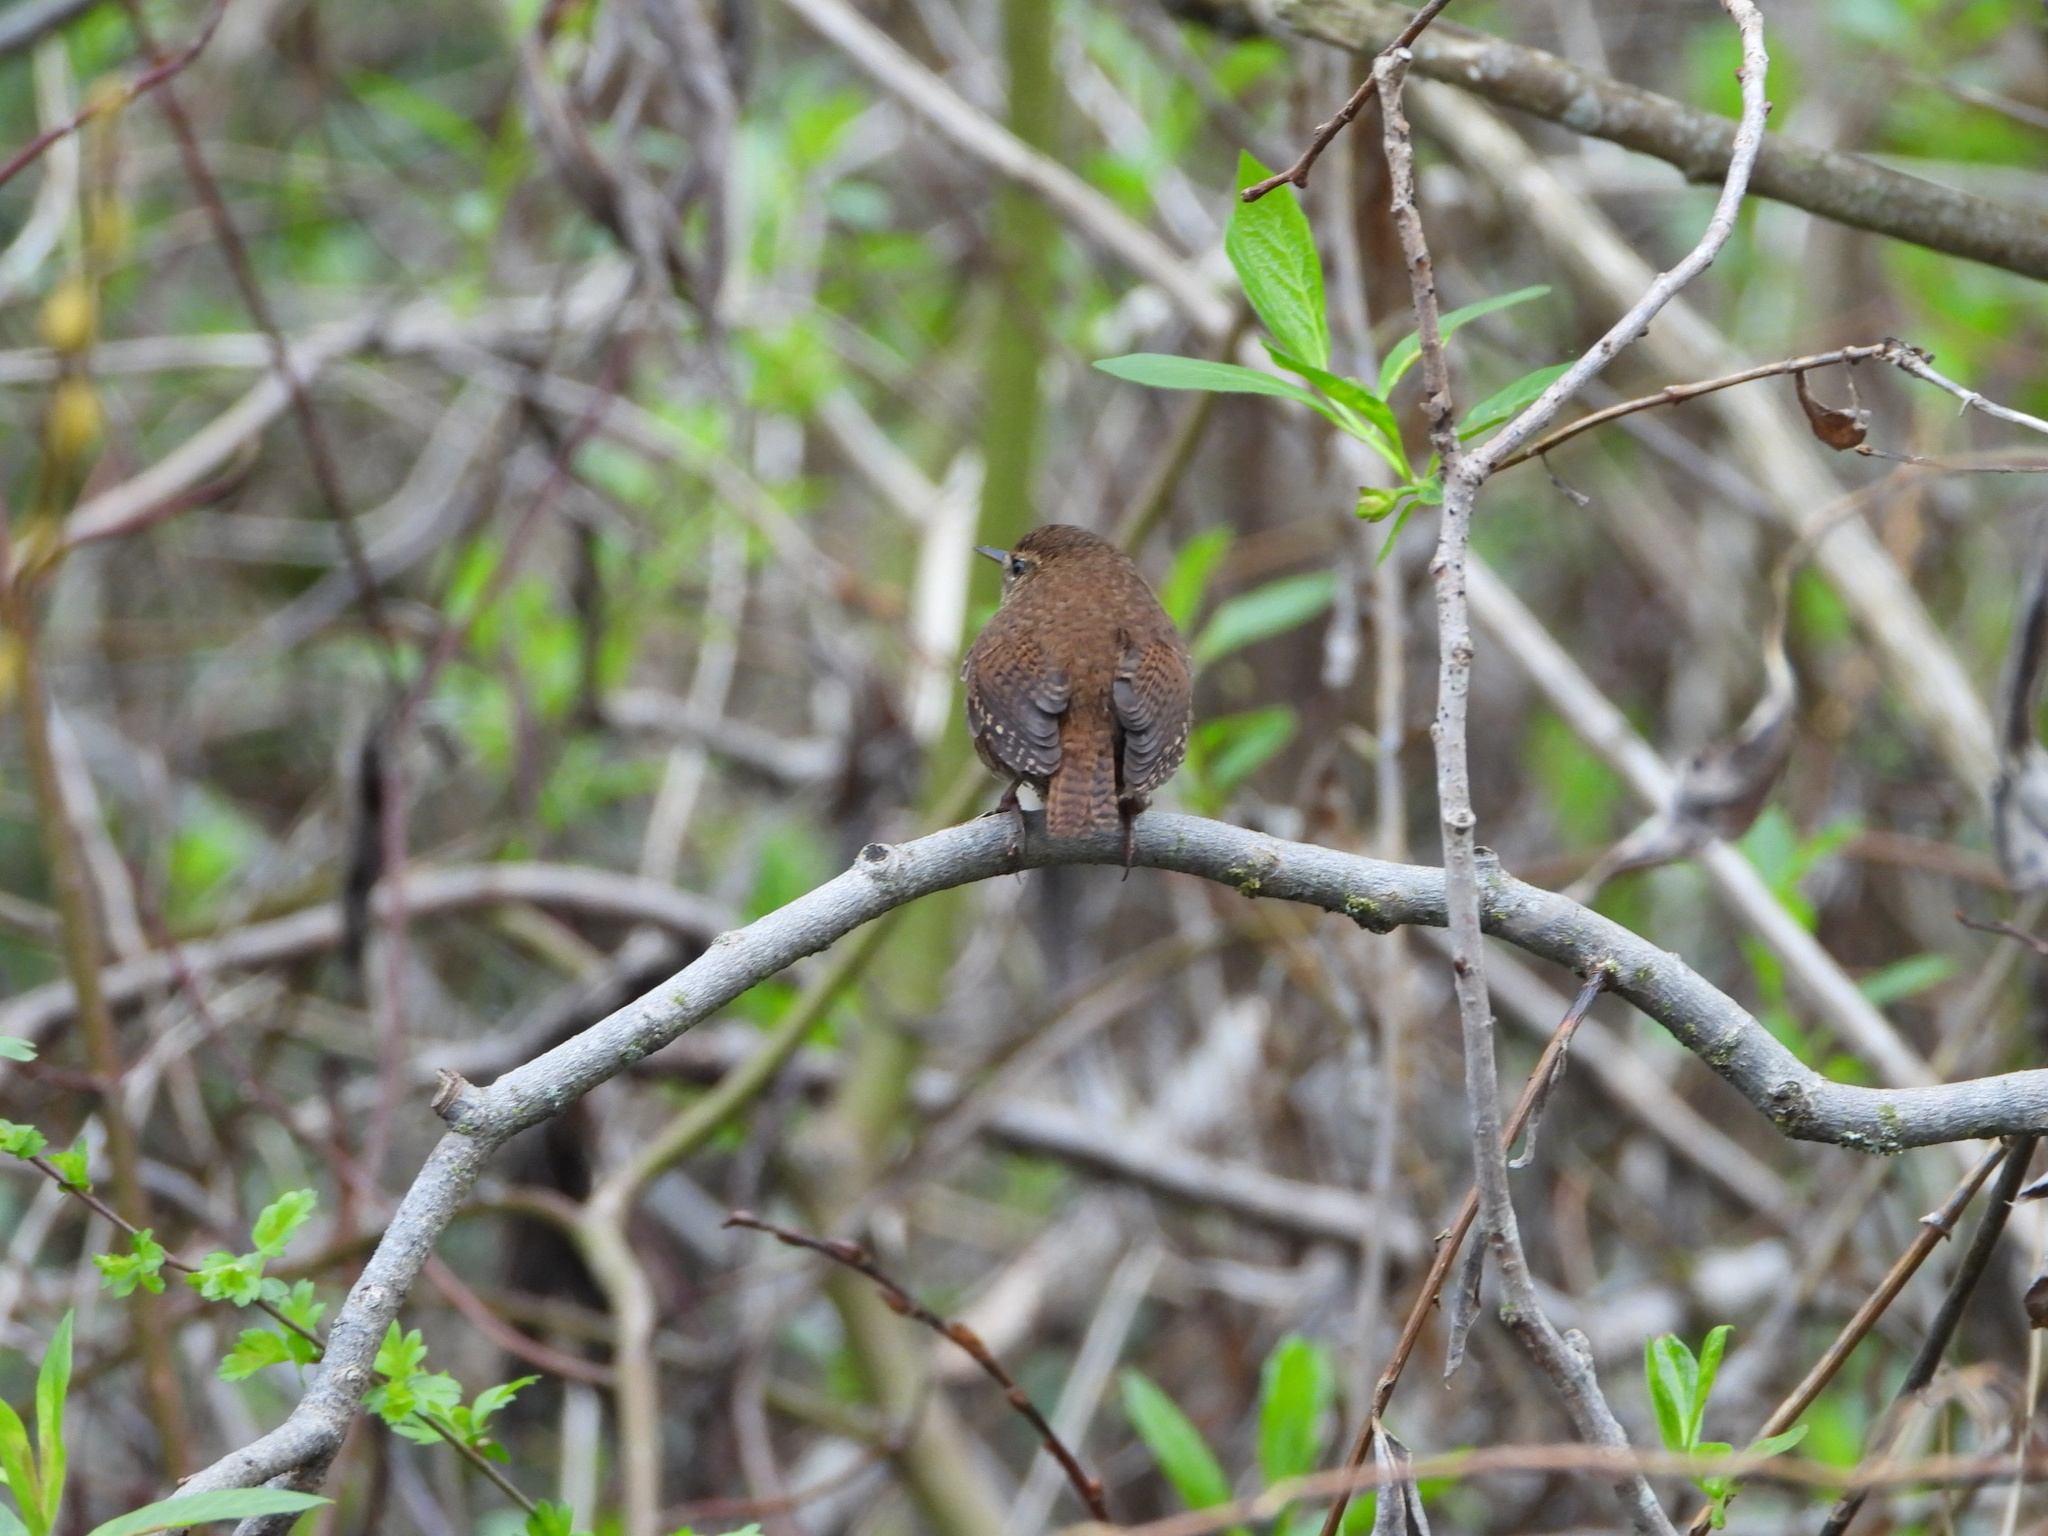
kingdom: Animalia
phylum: Chordata
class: Aves
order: Passeriformes
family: Troglodytidae
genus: Thryomanes
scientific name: Thryomanes bewickii
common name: Bewick's wren
